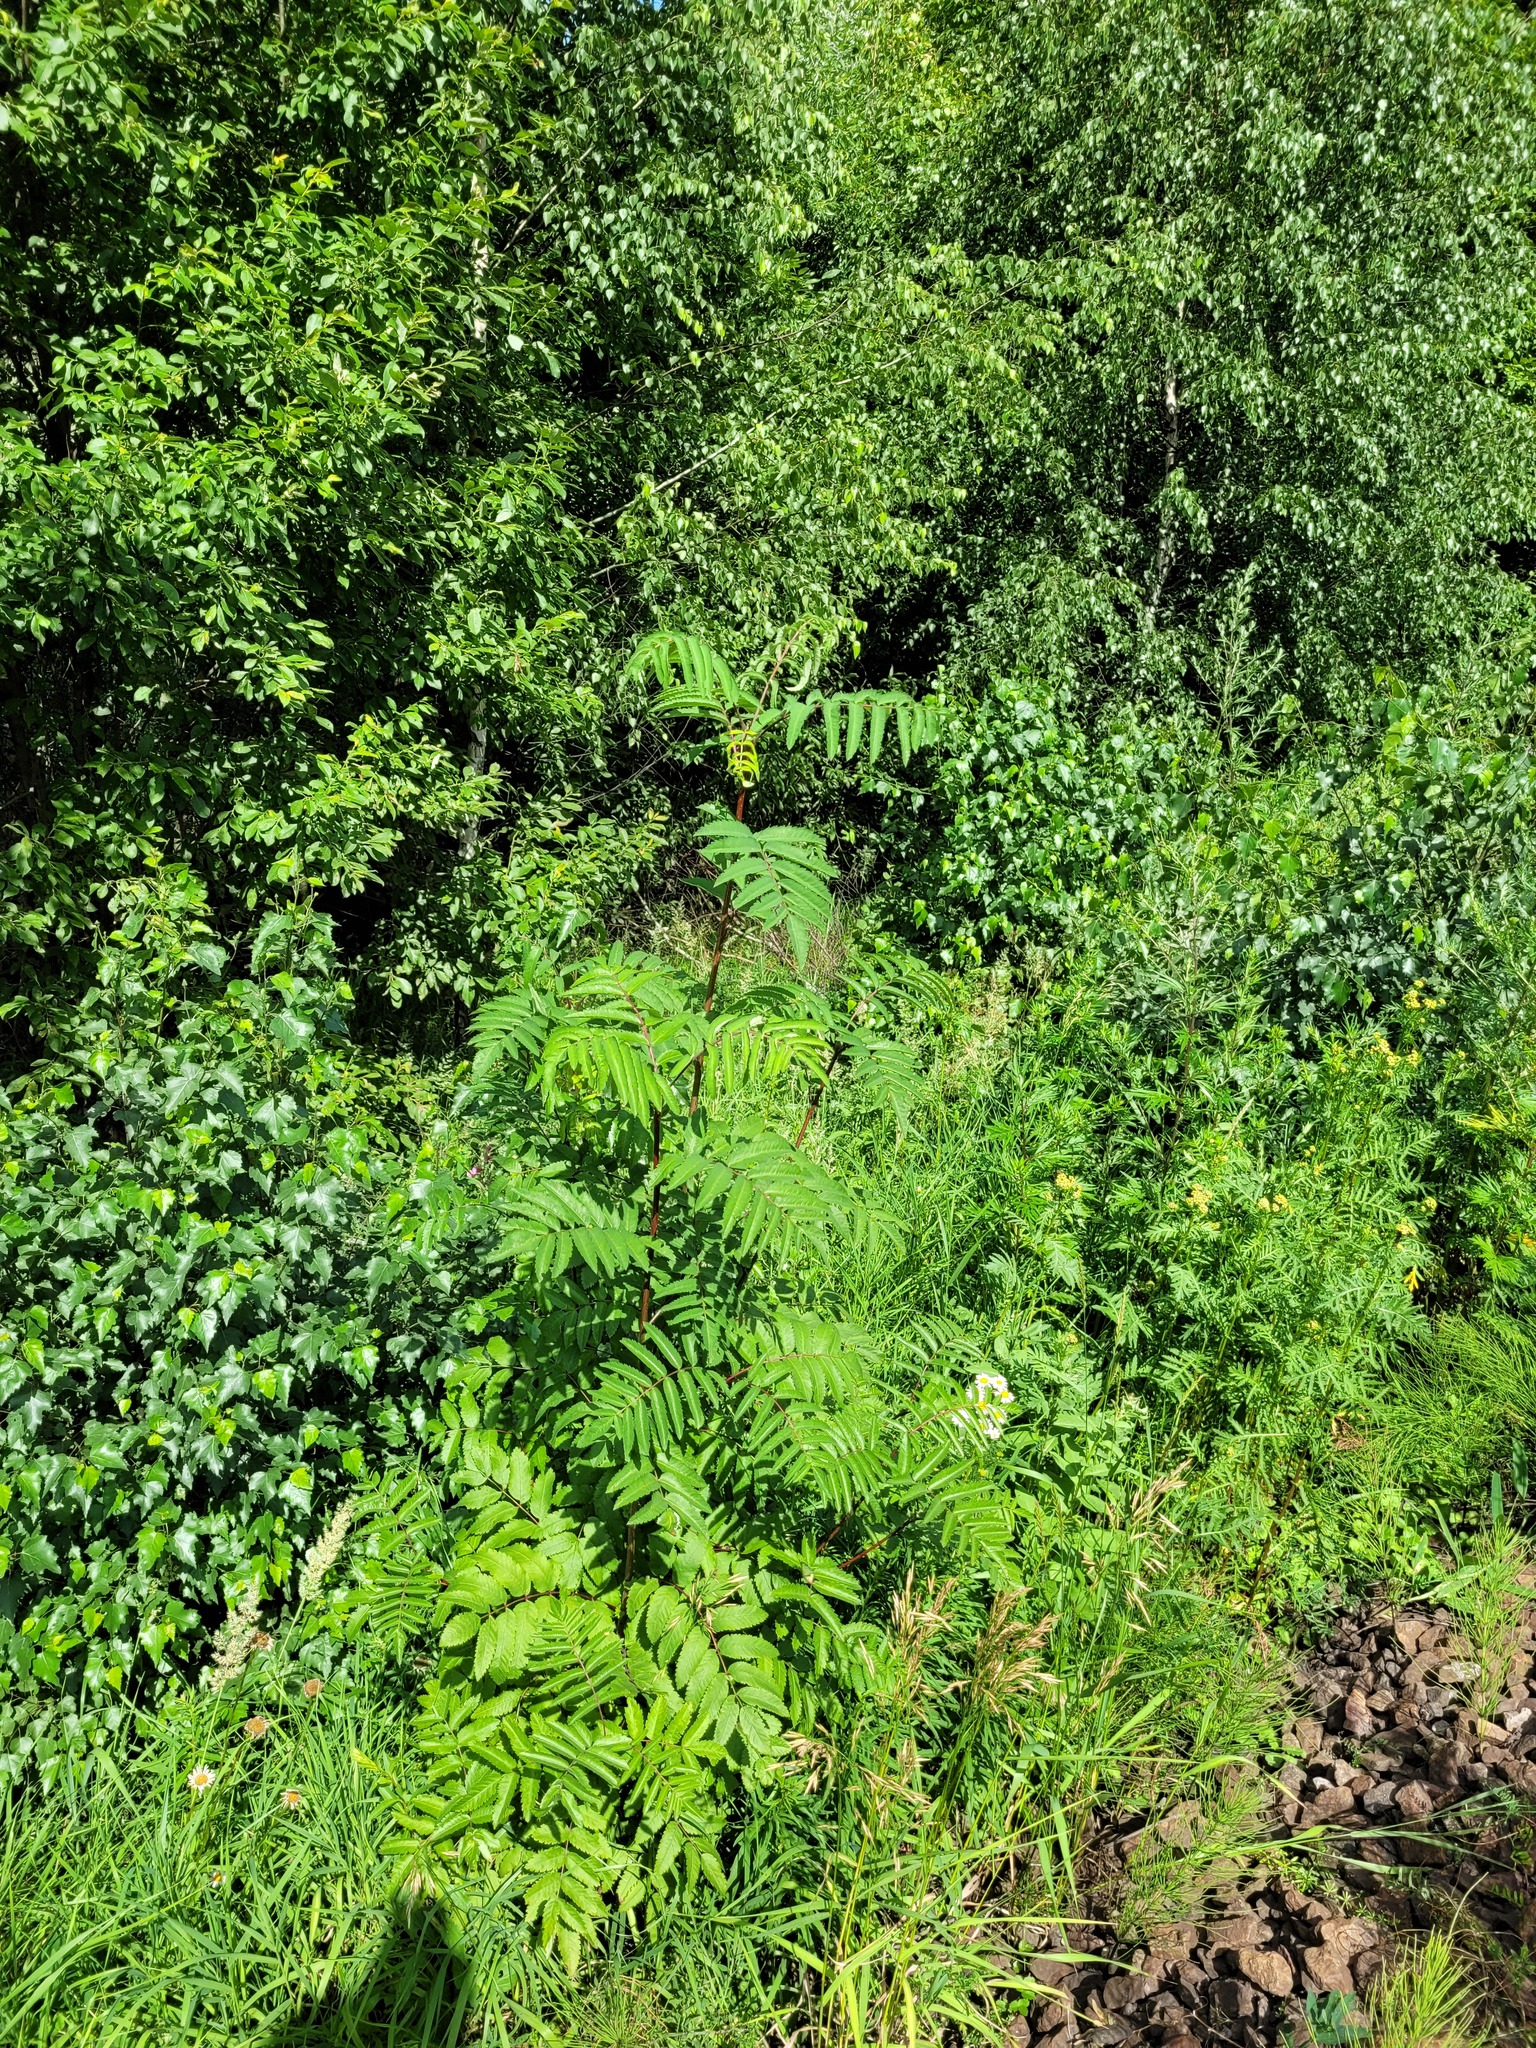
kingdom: Plantae
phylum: Tracheophyta
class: Magnoliopsida
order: Rosales
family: Rosaceae
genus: Sorbus
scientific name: Sorbus aucuparia
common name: Rowan
